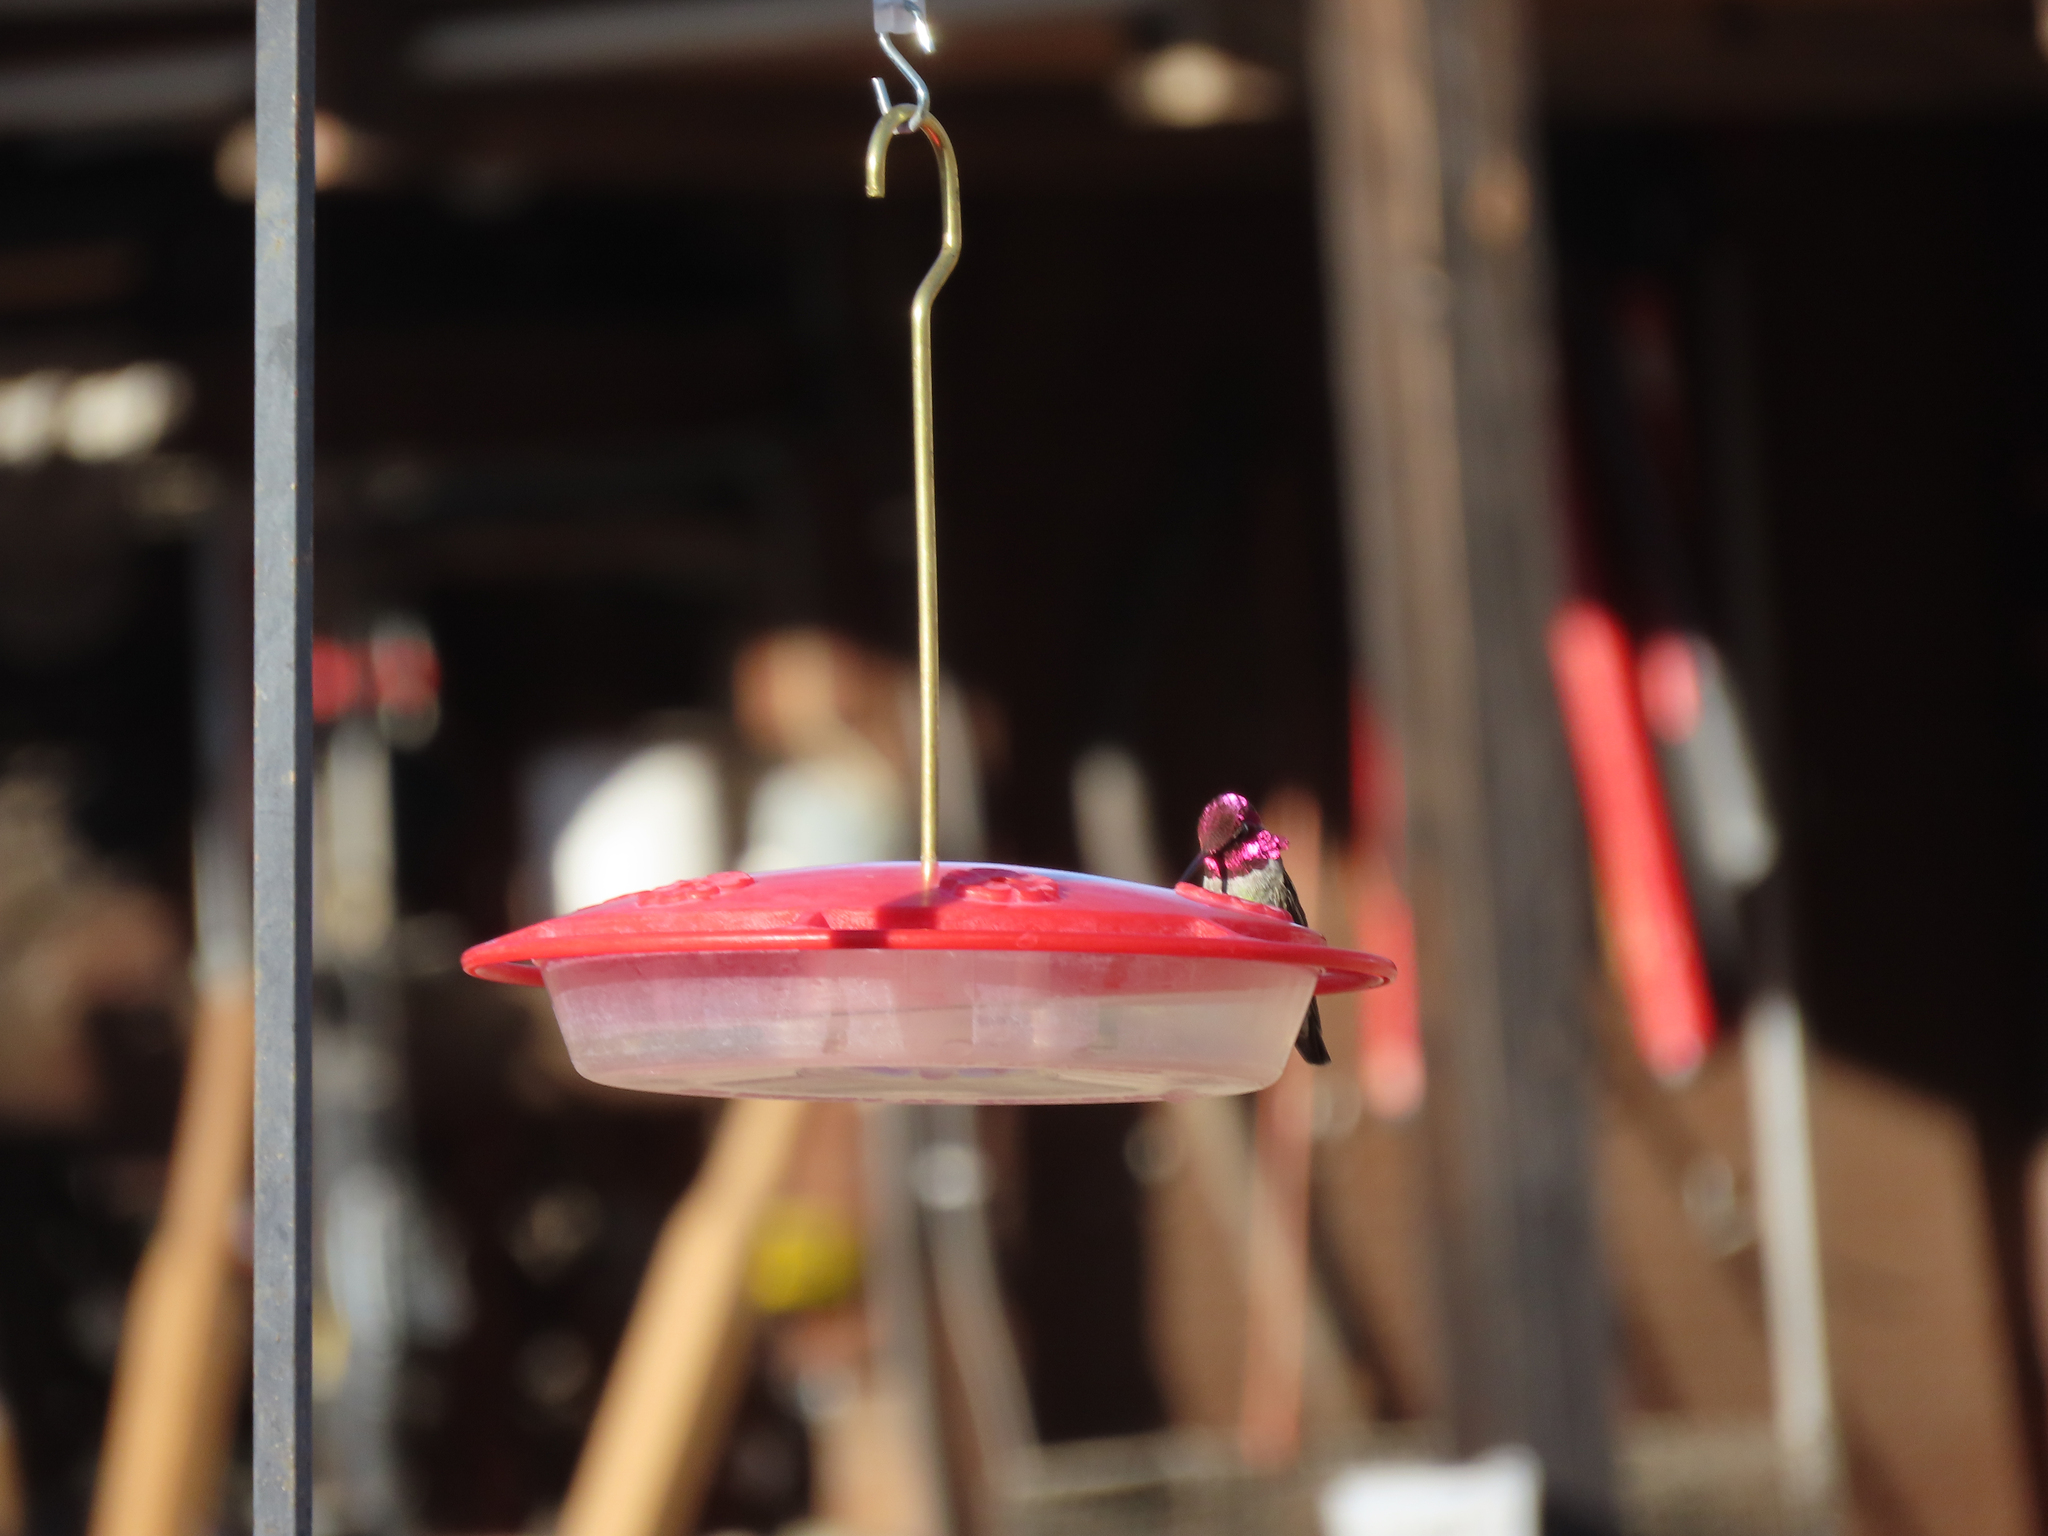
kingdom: Animalia
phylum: Chordata
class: Aves
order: Apodiformes
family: Trochilidae
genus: Calypte
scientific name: Calypte anna
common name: Anna's hummingbird
